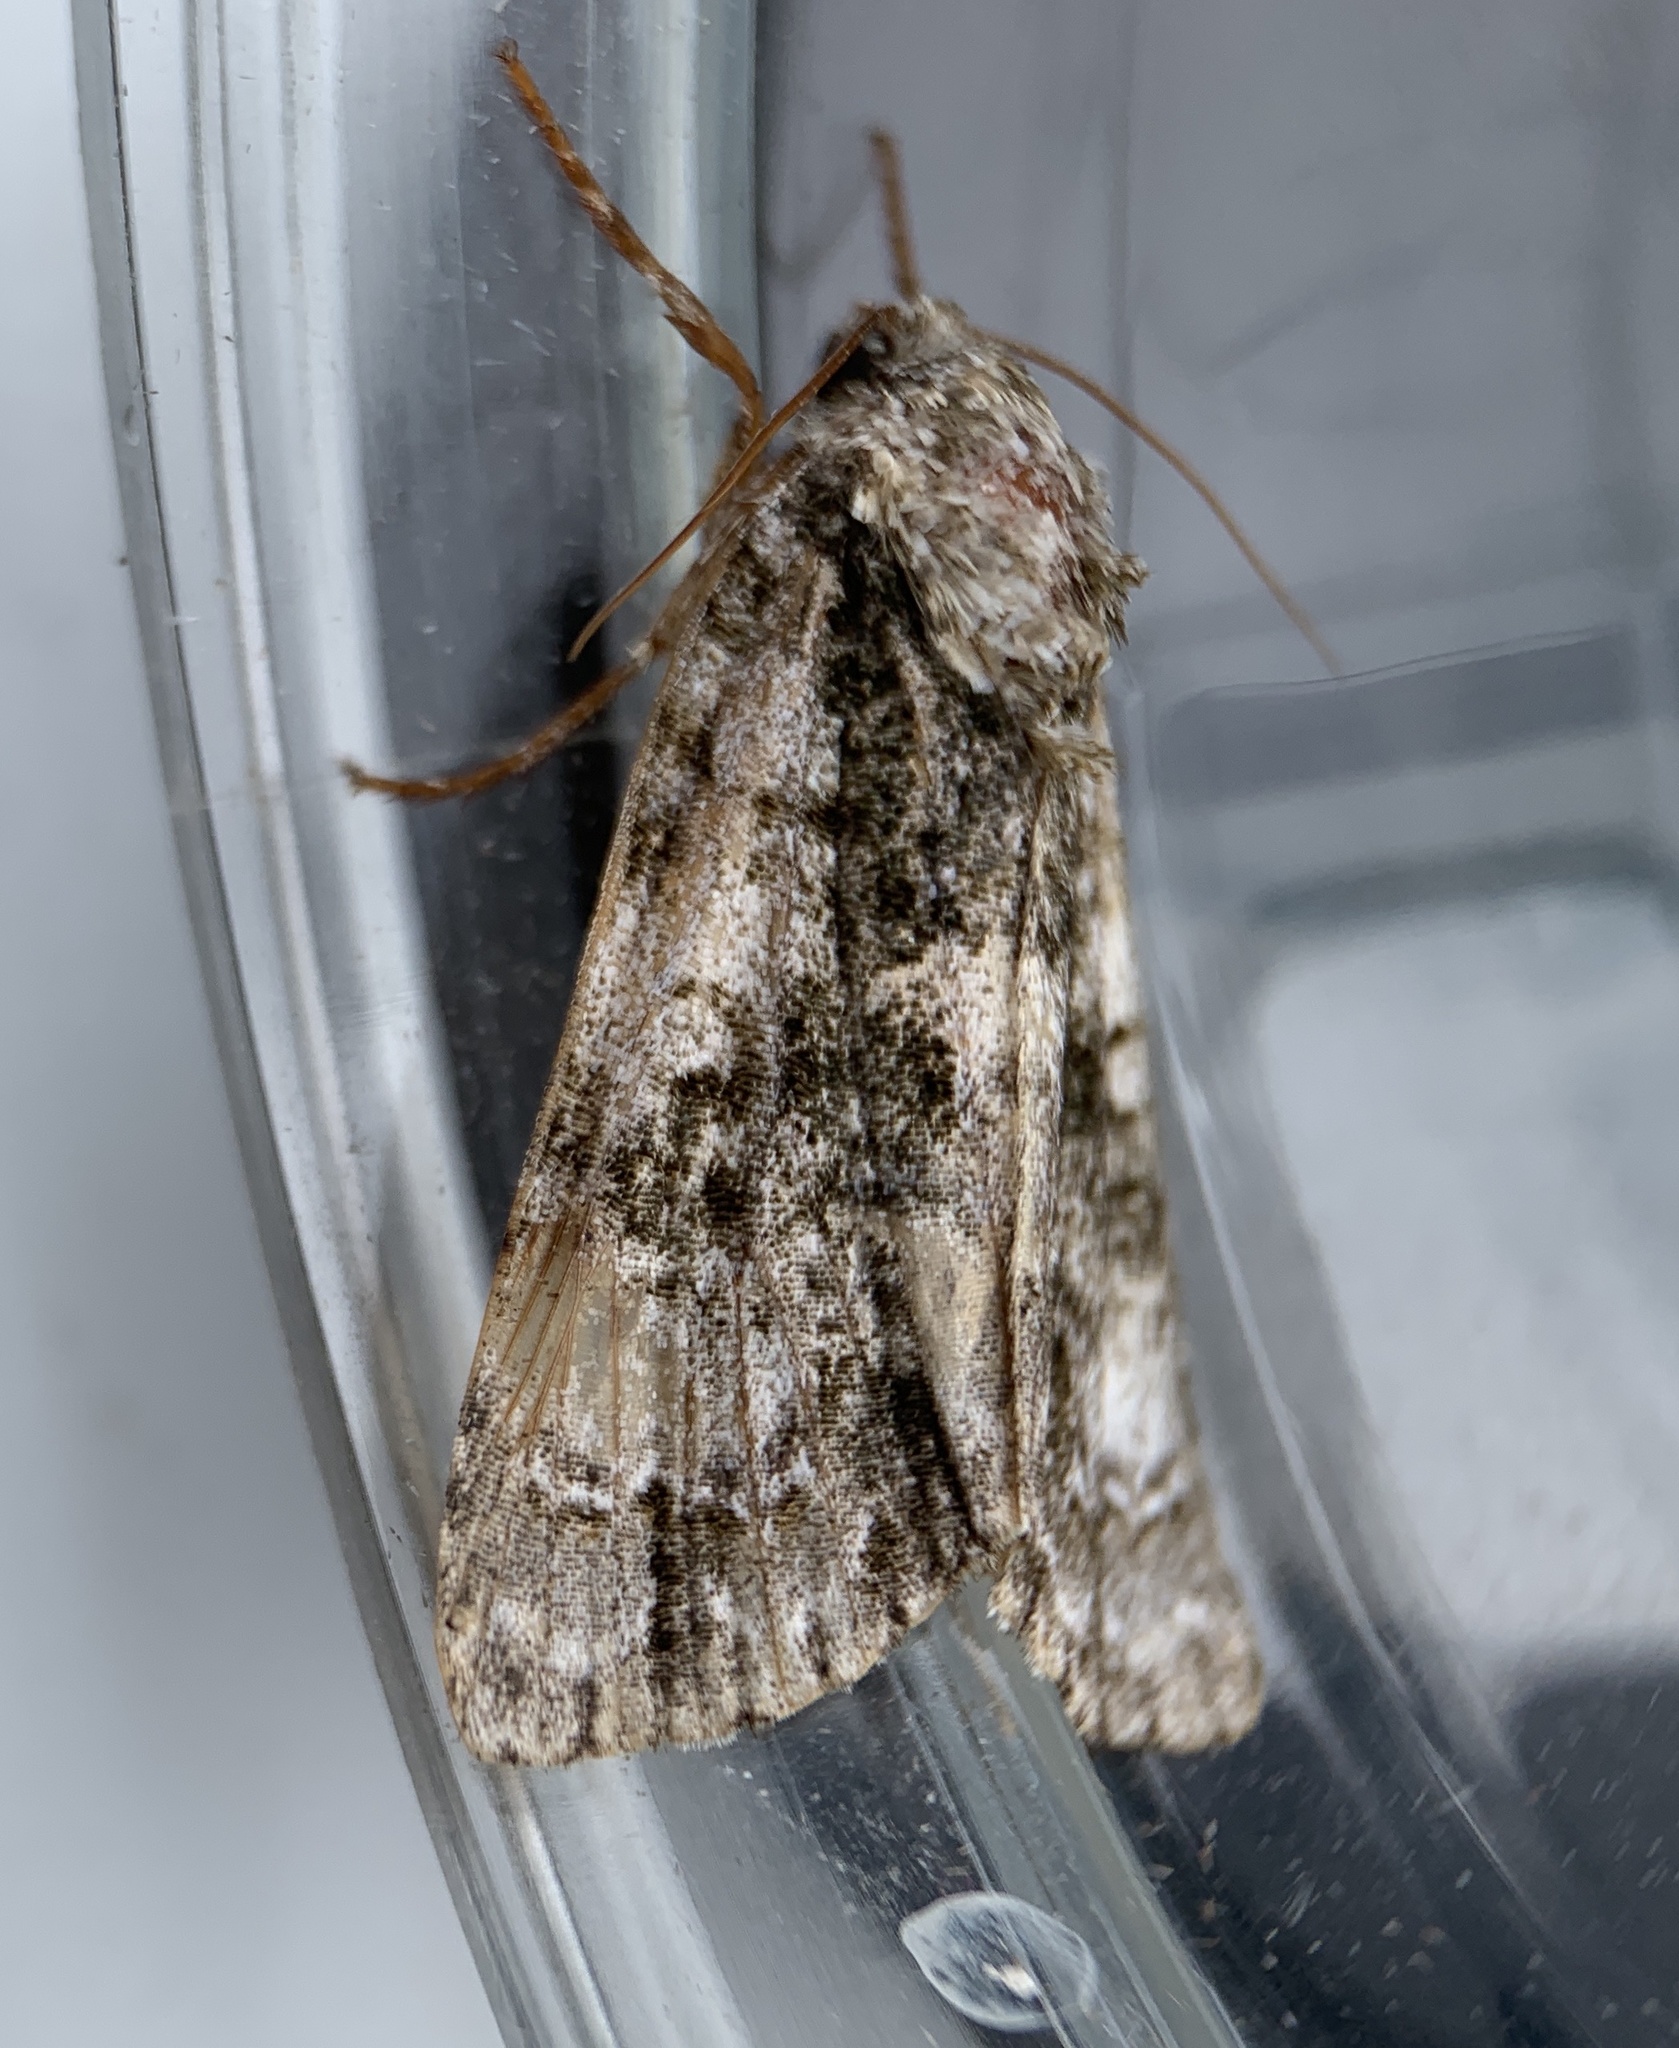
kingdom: Animalia
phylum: Arthropoda
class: Insecta
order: Lepidoptera
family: Noctuidae
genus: Acronicta
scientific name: Acronicta superans
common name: Splendid dagger
